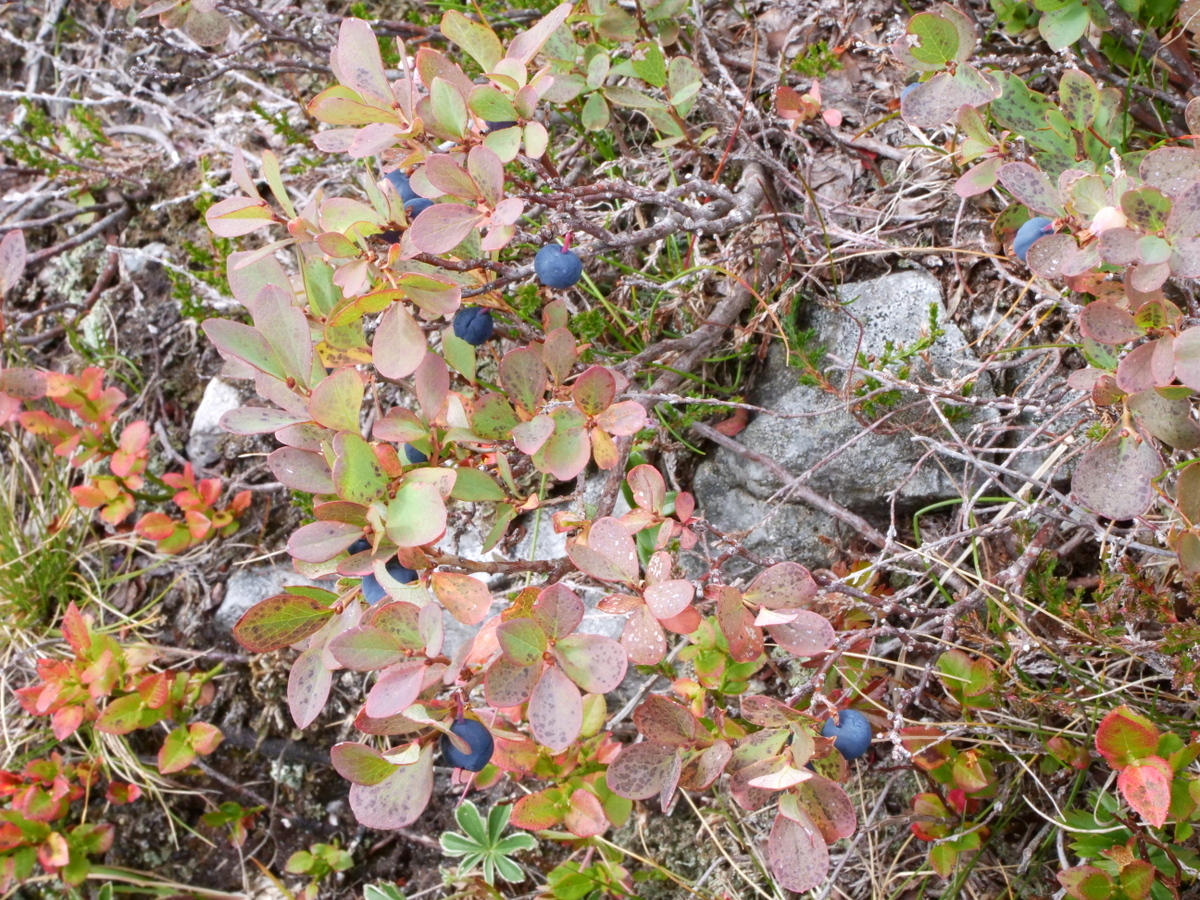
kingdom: Plantae
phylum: Tracheophyta
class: Magnoliopsida
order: Ericales
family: Ericaceae
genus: Vaccinium
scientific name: Vaccinium uliginosum
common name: Bog bilberry
